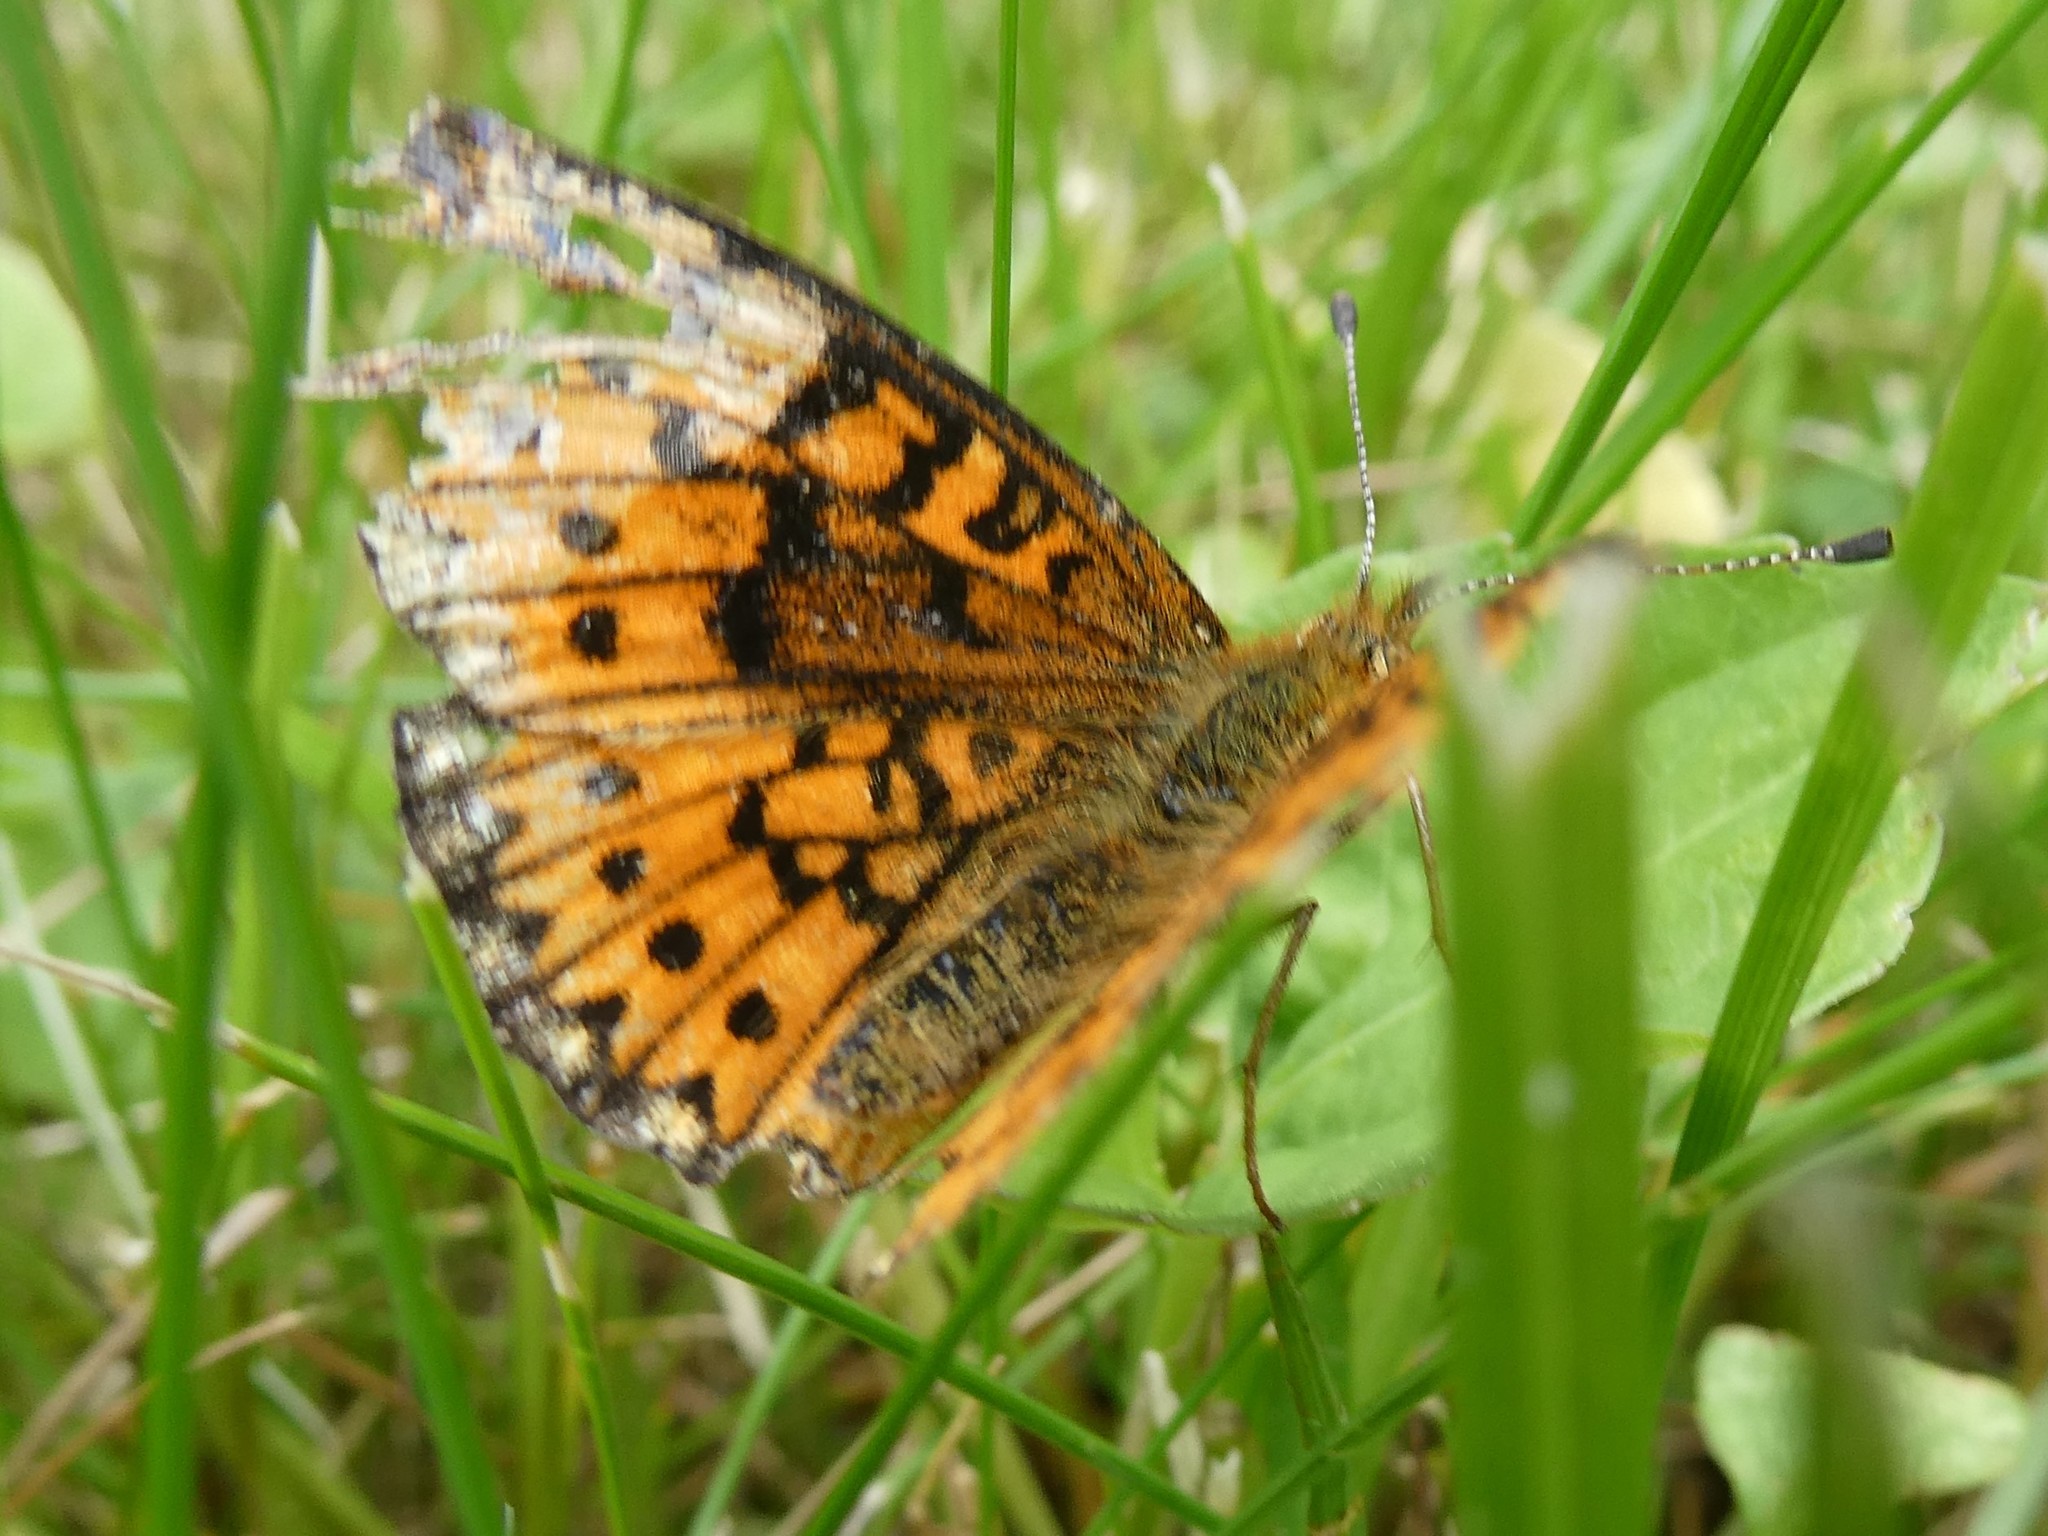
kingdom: Animalia
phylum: Arthropoda
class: Insecta
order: Lepidoptera
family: Nymphalidae
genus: Boloria
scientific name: Boloria
